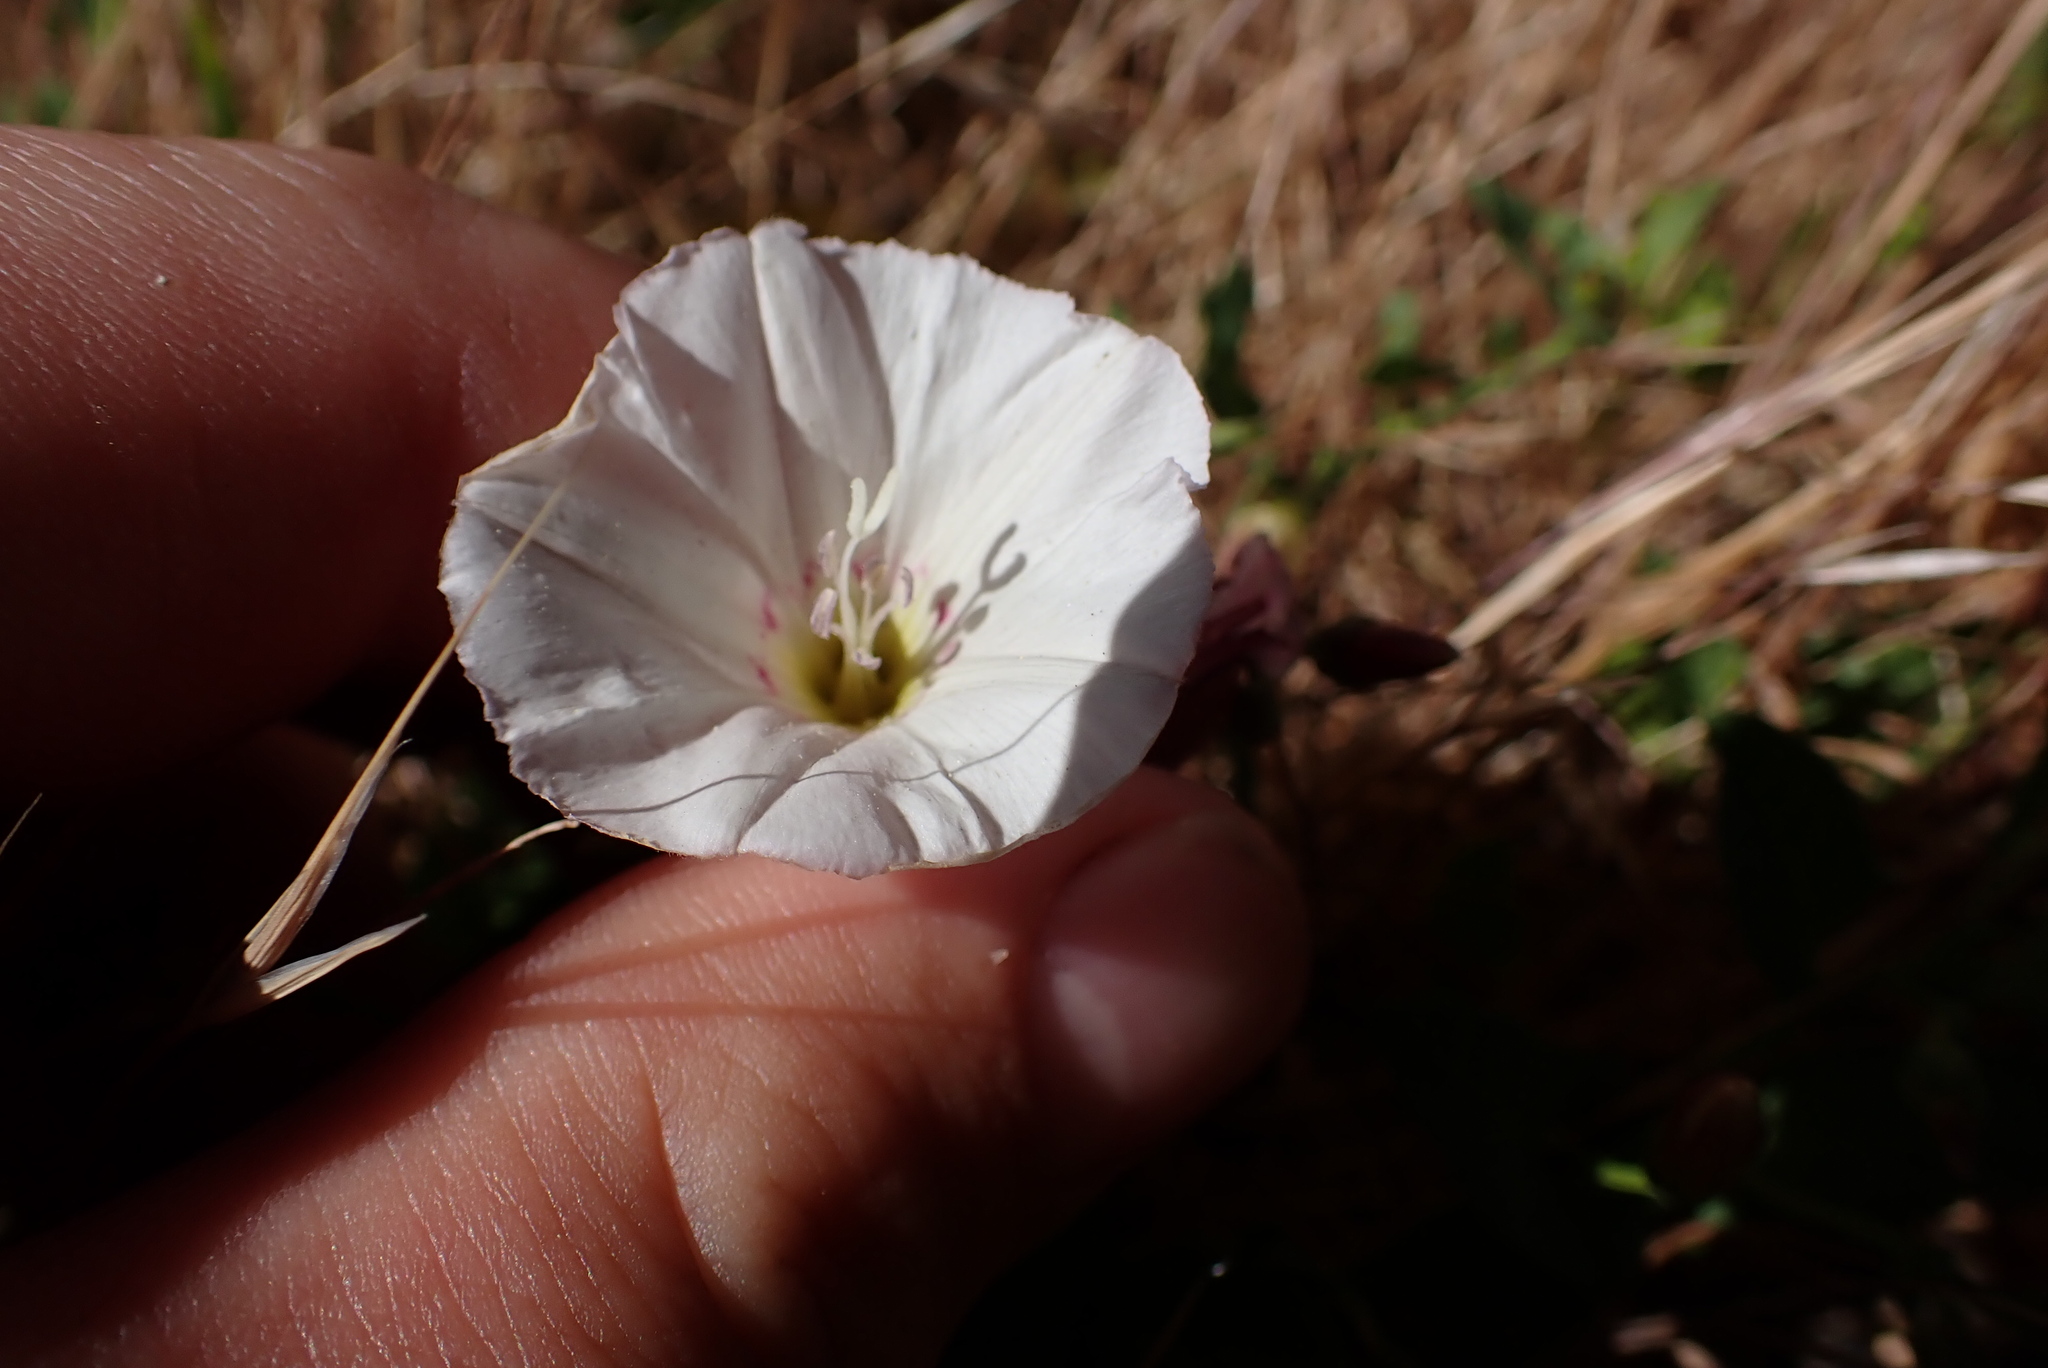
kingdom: Plantae
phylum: Tracheophyta
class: Magnoliopsida
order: Solanales
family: Convolvulaceae
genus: Convolvulus
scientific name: Convolvulus arvensis
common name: Field bindweed
